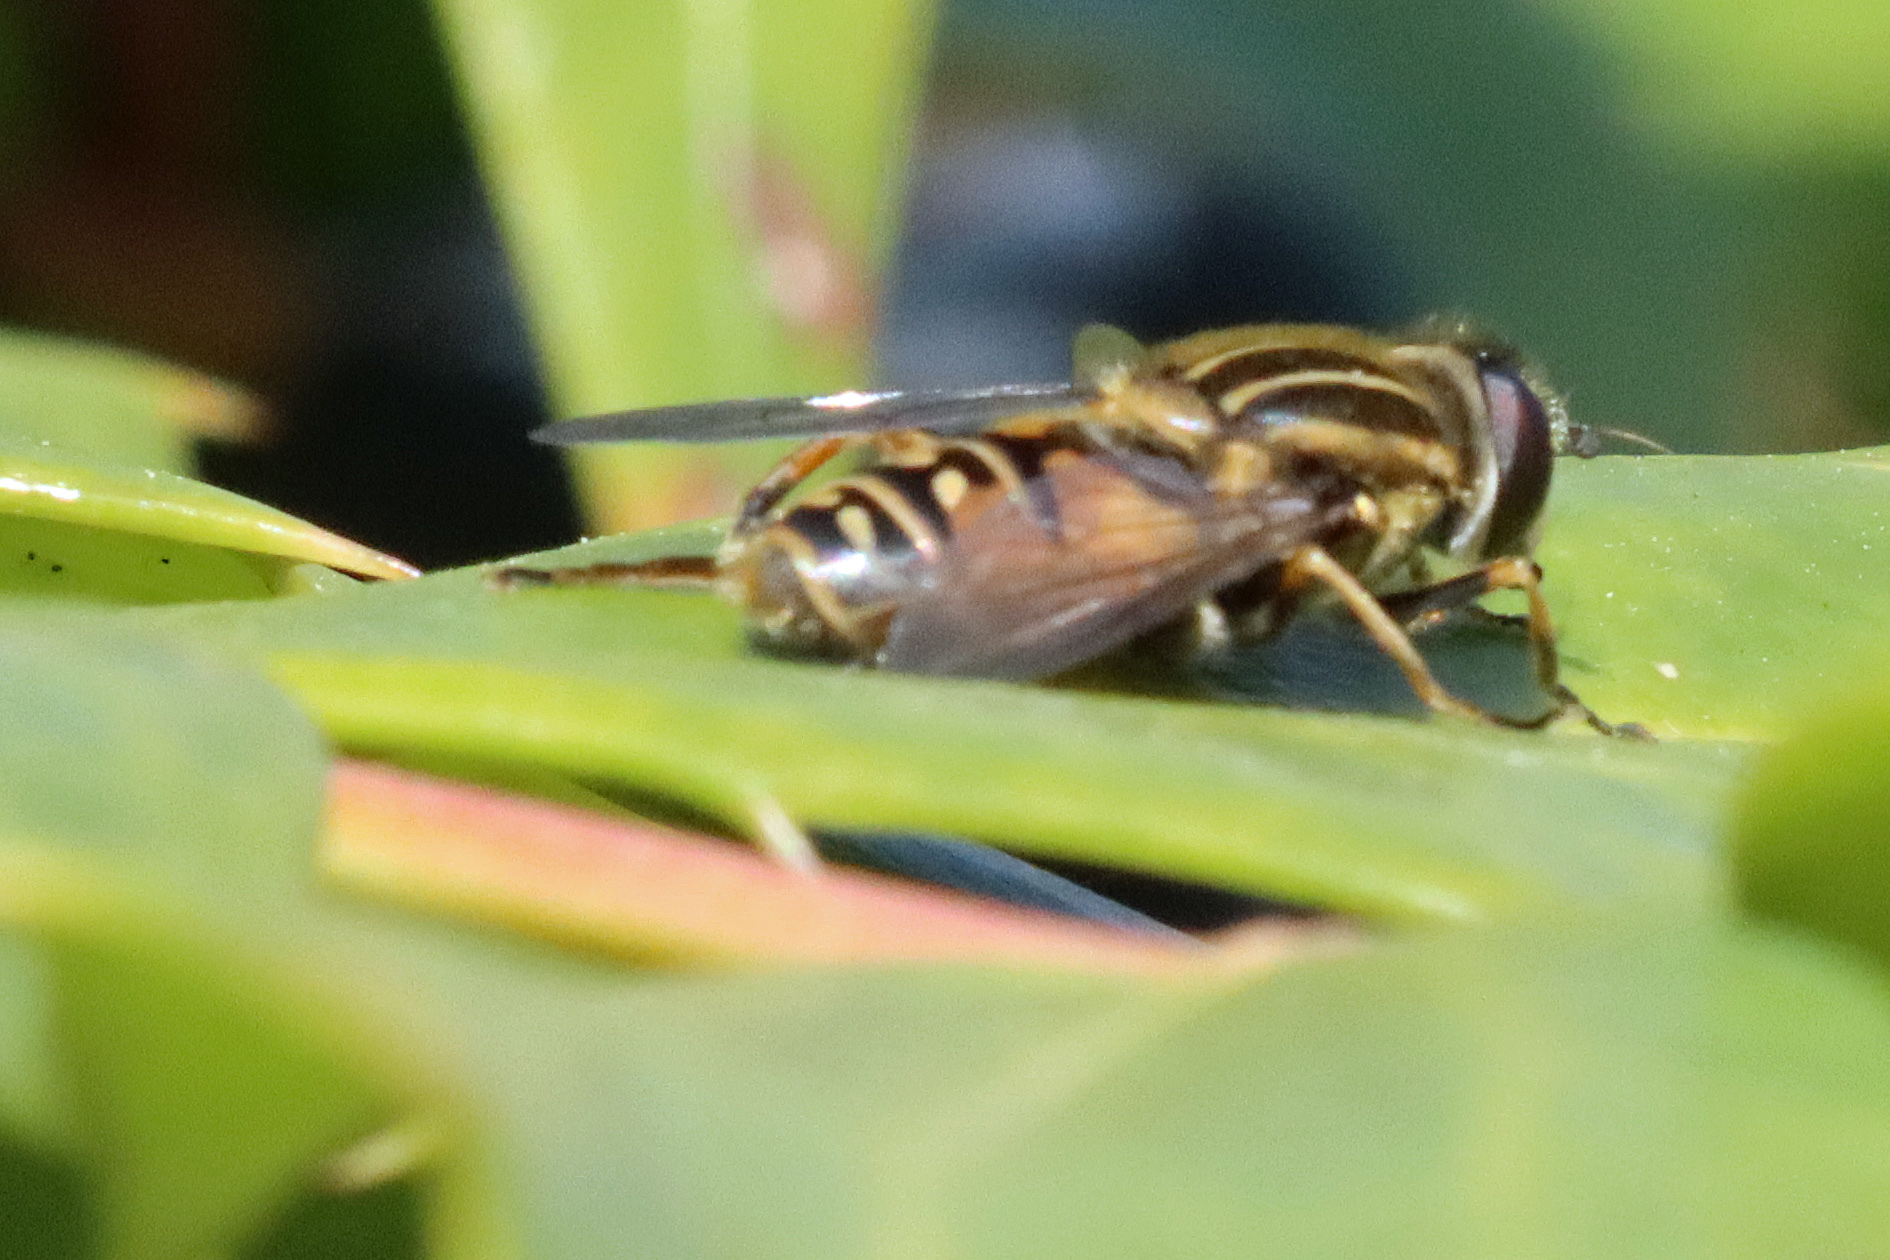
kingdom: Animalia
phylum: Arthropoda
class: Insecta
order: Diptera
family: Syrphidae
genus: Helophilus
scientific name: Helophilus pendulus
